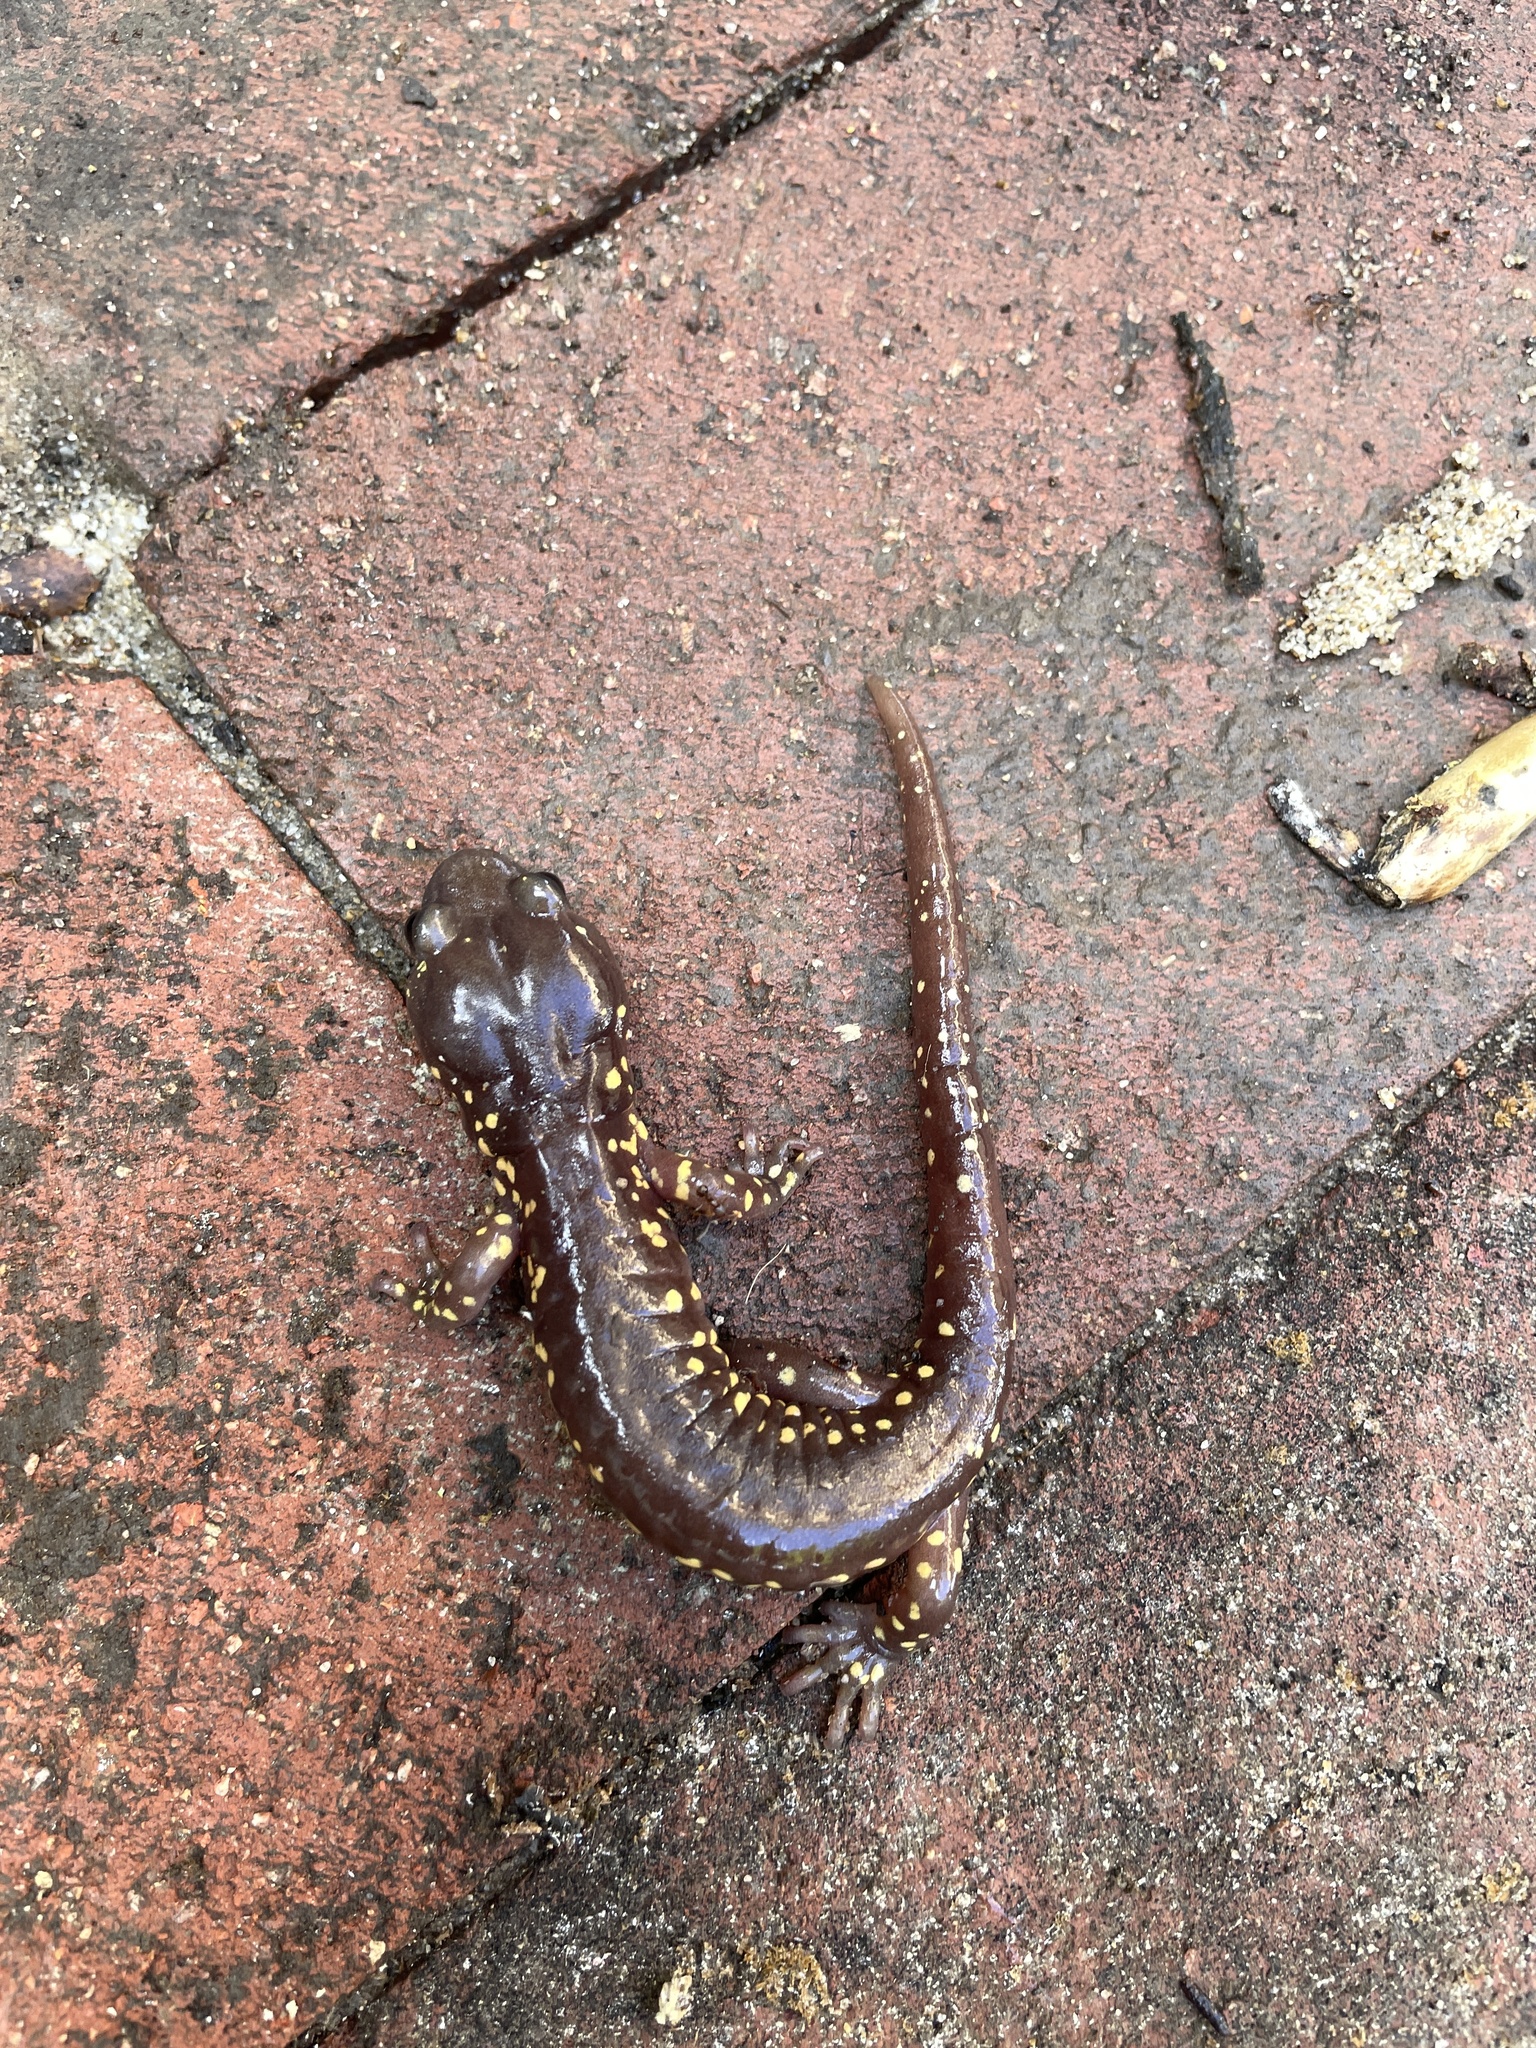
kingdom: Animalia
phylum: Chordata
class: Amphibia
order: Caudata
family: Plethodontidae
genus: Aneides
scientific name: Aneides lugubris
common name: Arboreal salamander
